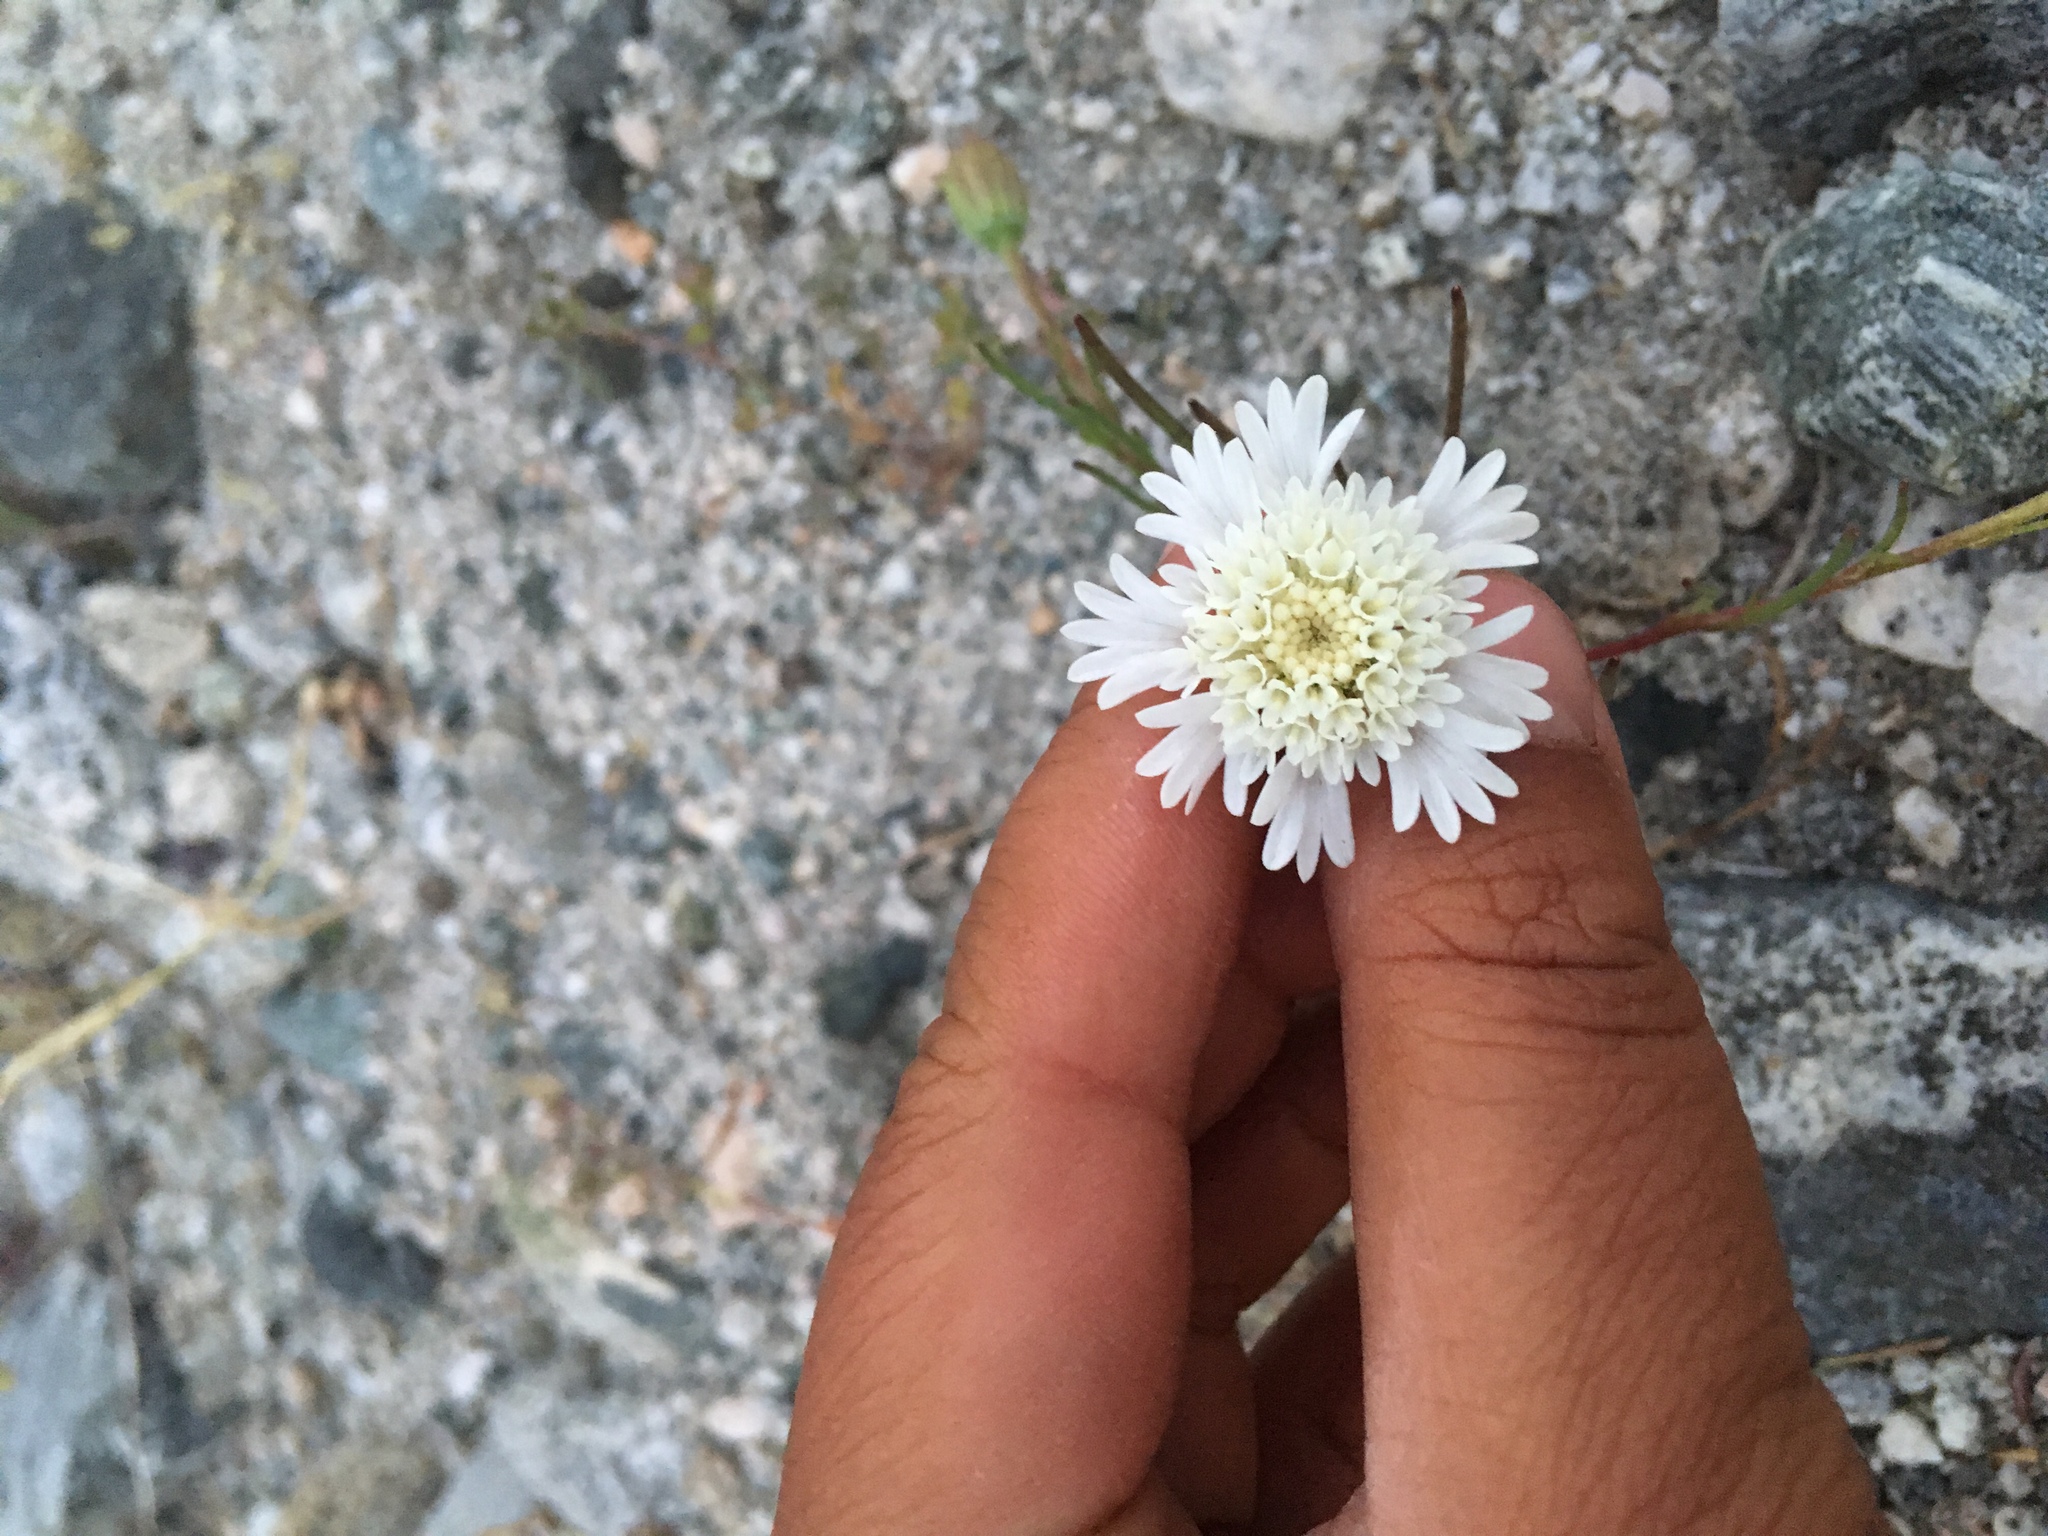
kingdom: Plantae
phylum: Tracheophyta
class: Magnoliopsida
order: Asterales
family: Asteraceae
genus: Chaenactis
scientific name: Chaenactis fremontii
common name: Fremont pincushion
